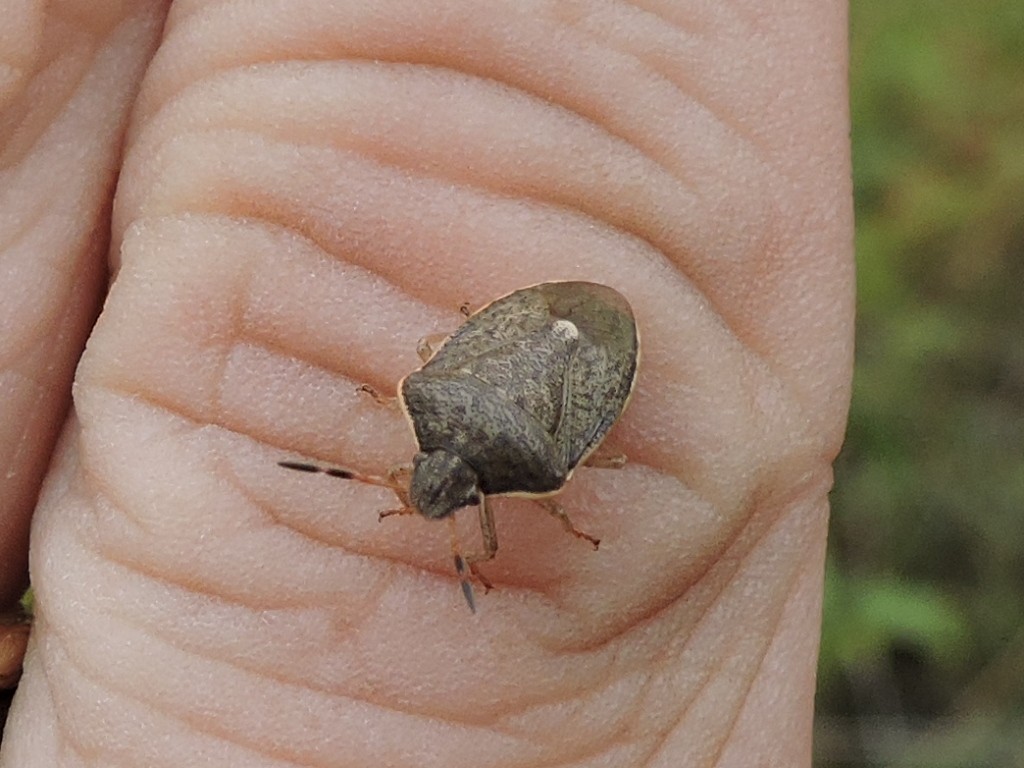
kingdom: Animalia
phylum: Arthropoda
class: Insecta
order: Hemiptera
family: Pentatomidae
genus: Holcostethus
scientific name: Holcostethus limbolarius
